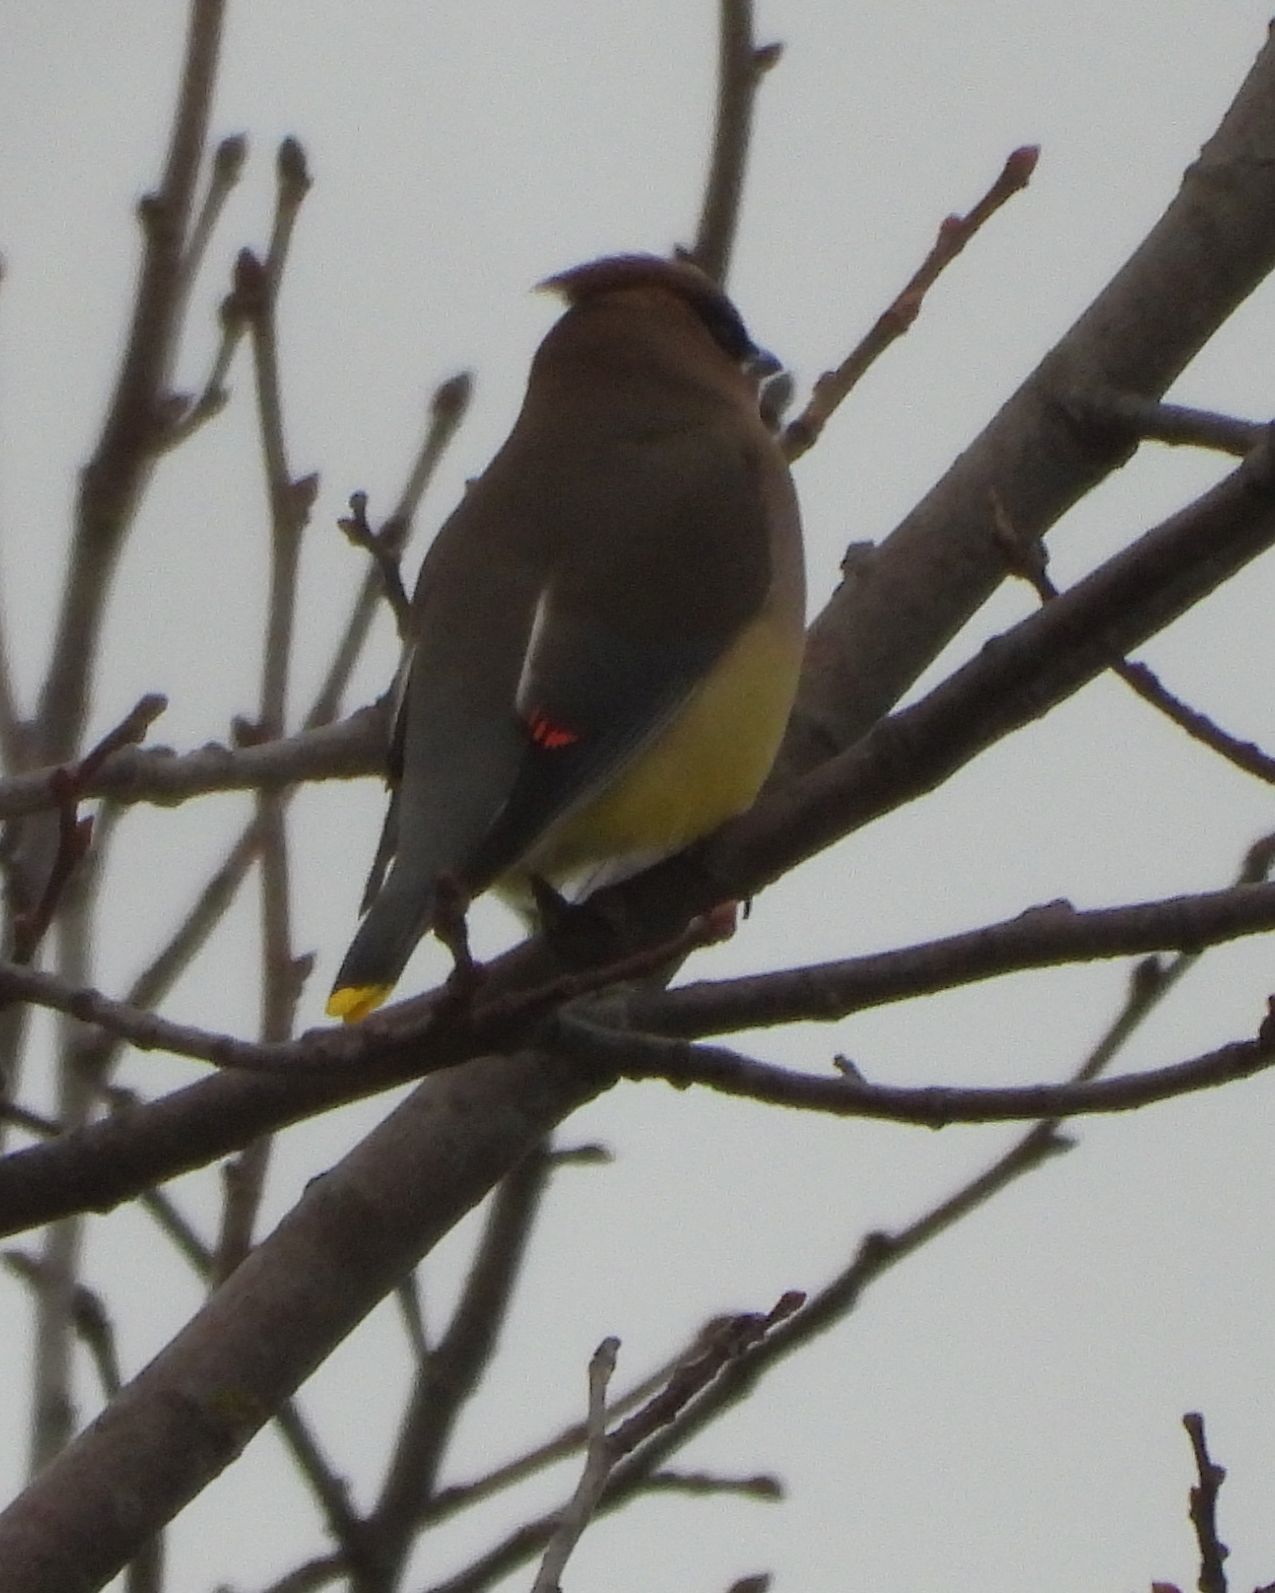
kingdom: Animalia
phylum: Chordata
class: Aves
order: Passeriformes
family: Bombycillidae
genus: Bombycilla
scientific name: Bombycilla cedrorum
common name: Cedar waxwing
